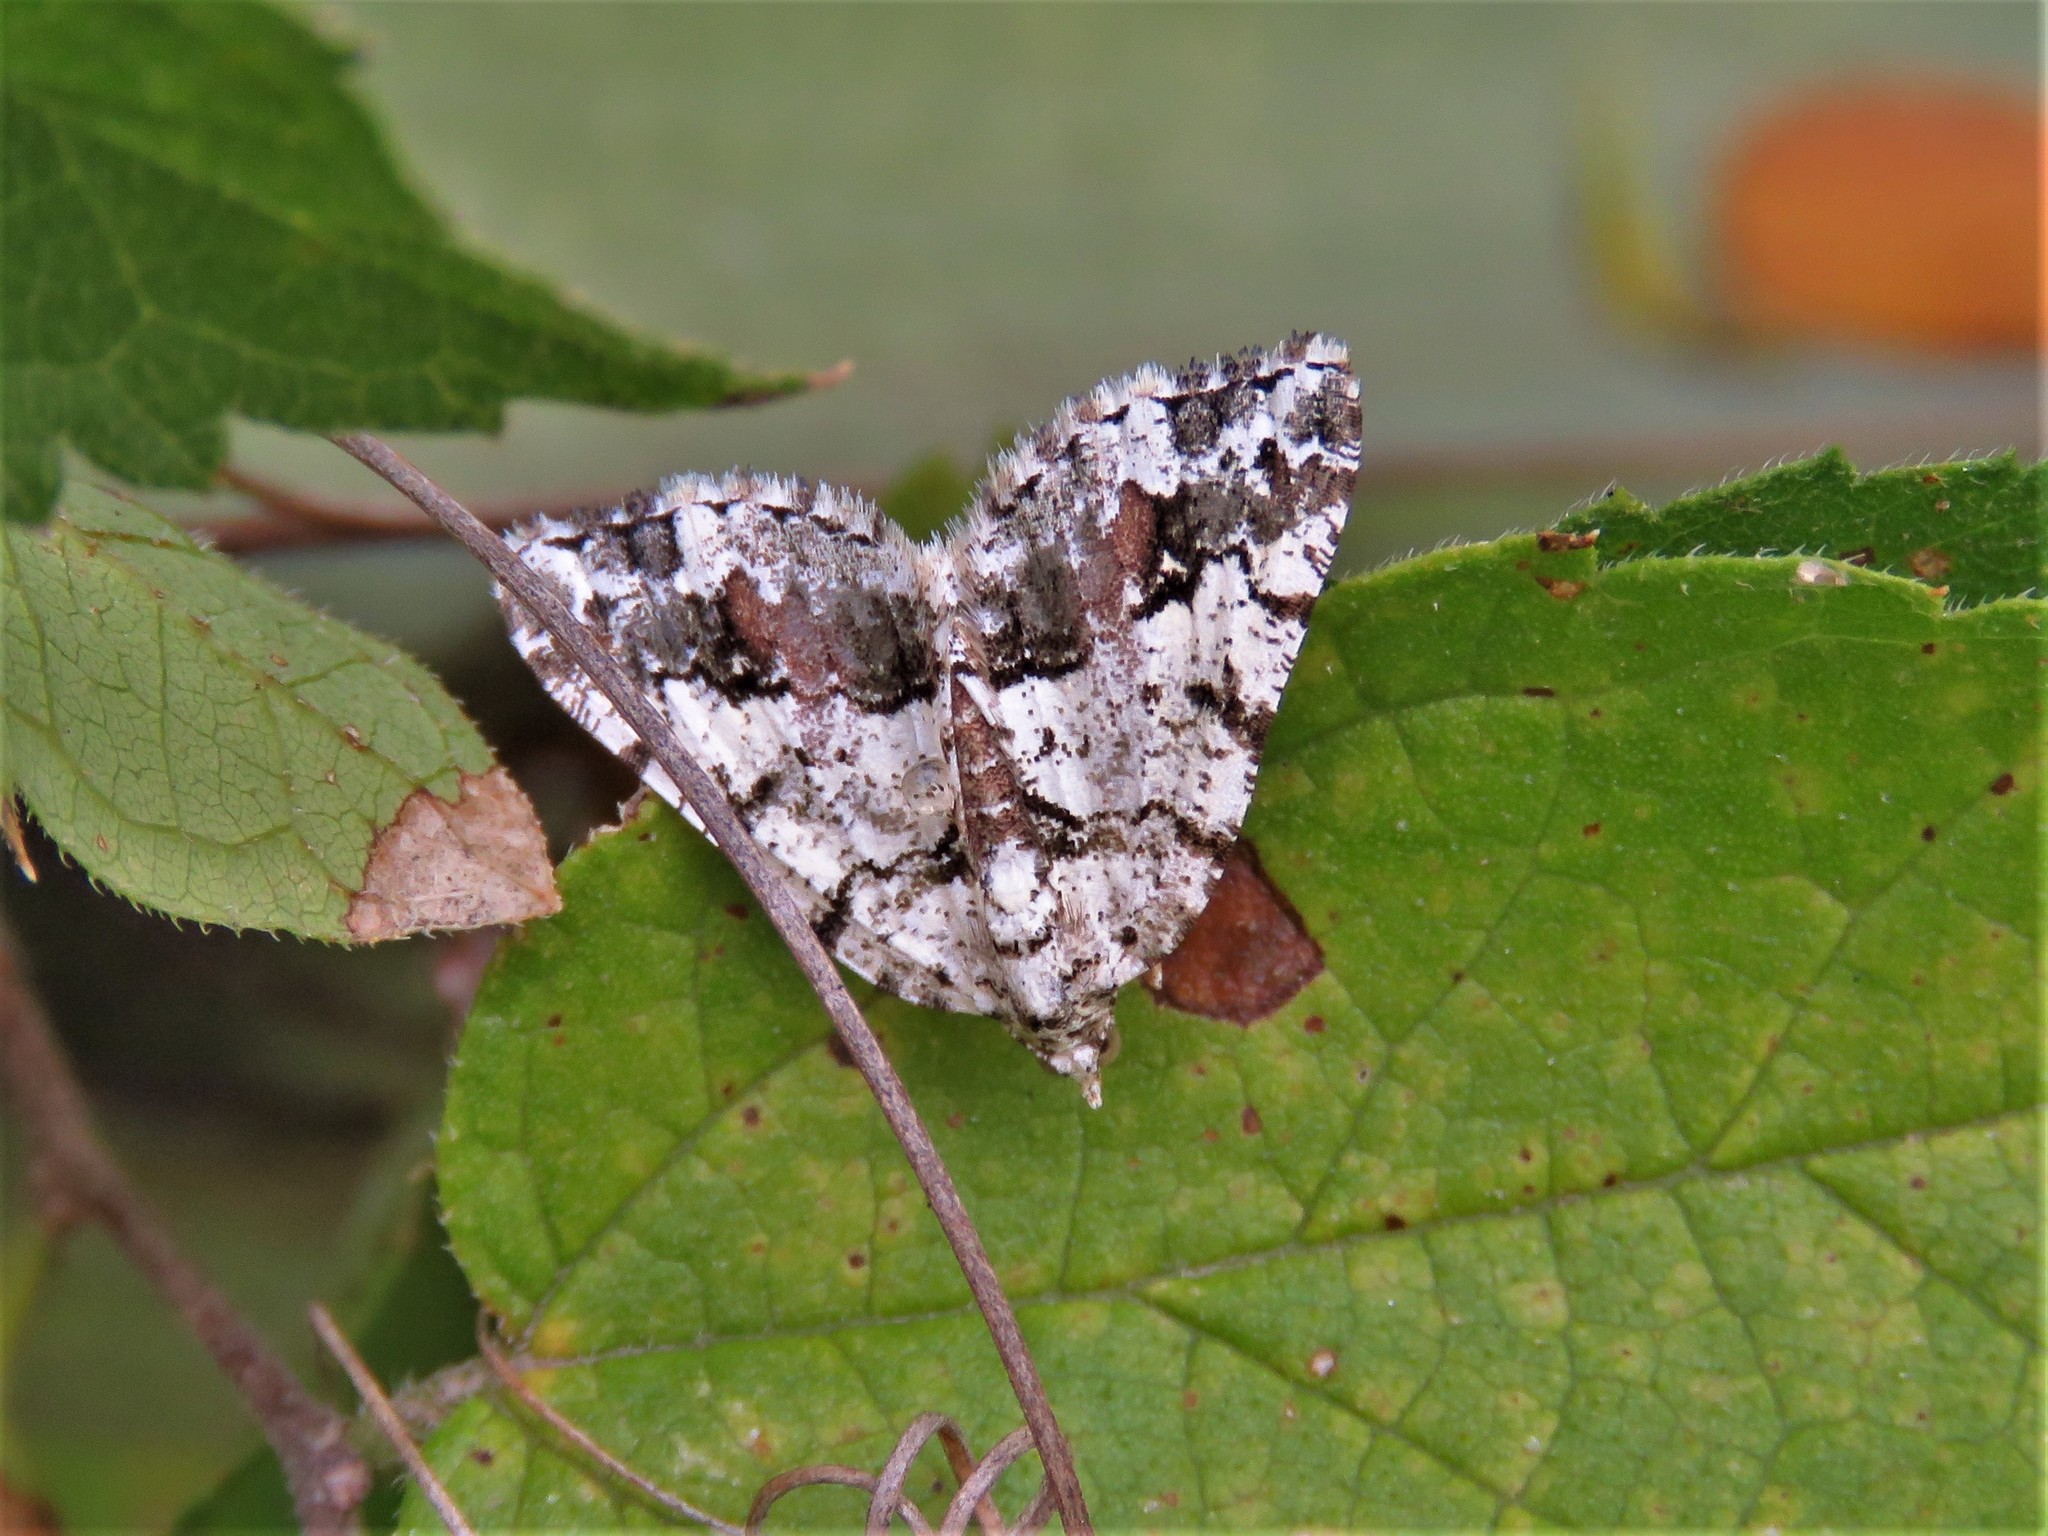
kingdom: Animalia
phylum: Arthropoda
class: Insecta
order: Lepidoptera
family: Geometridae
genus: Macaria
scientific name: Macaria graphidaria
